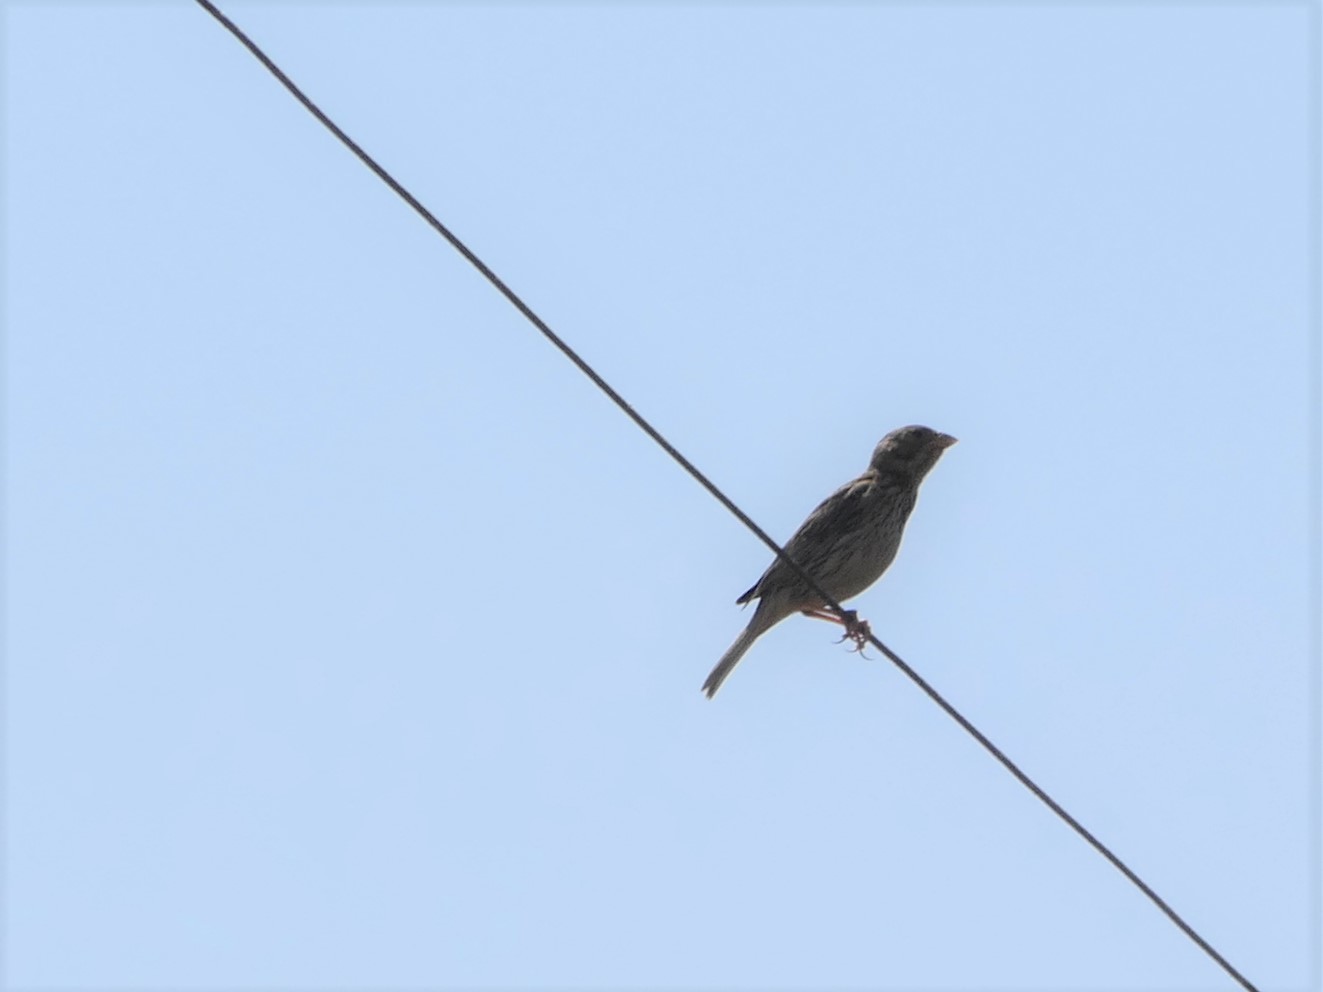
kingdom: Animalia
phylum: Chordata
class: Aves
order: Passeriformes
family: Emberizidae
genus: Emberiza
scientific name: Emberiza calandra
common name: Corn bunting
